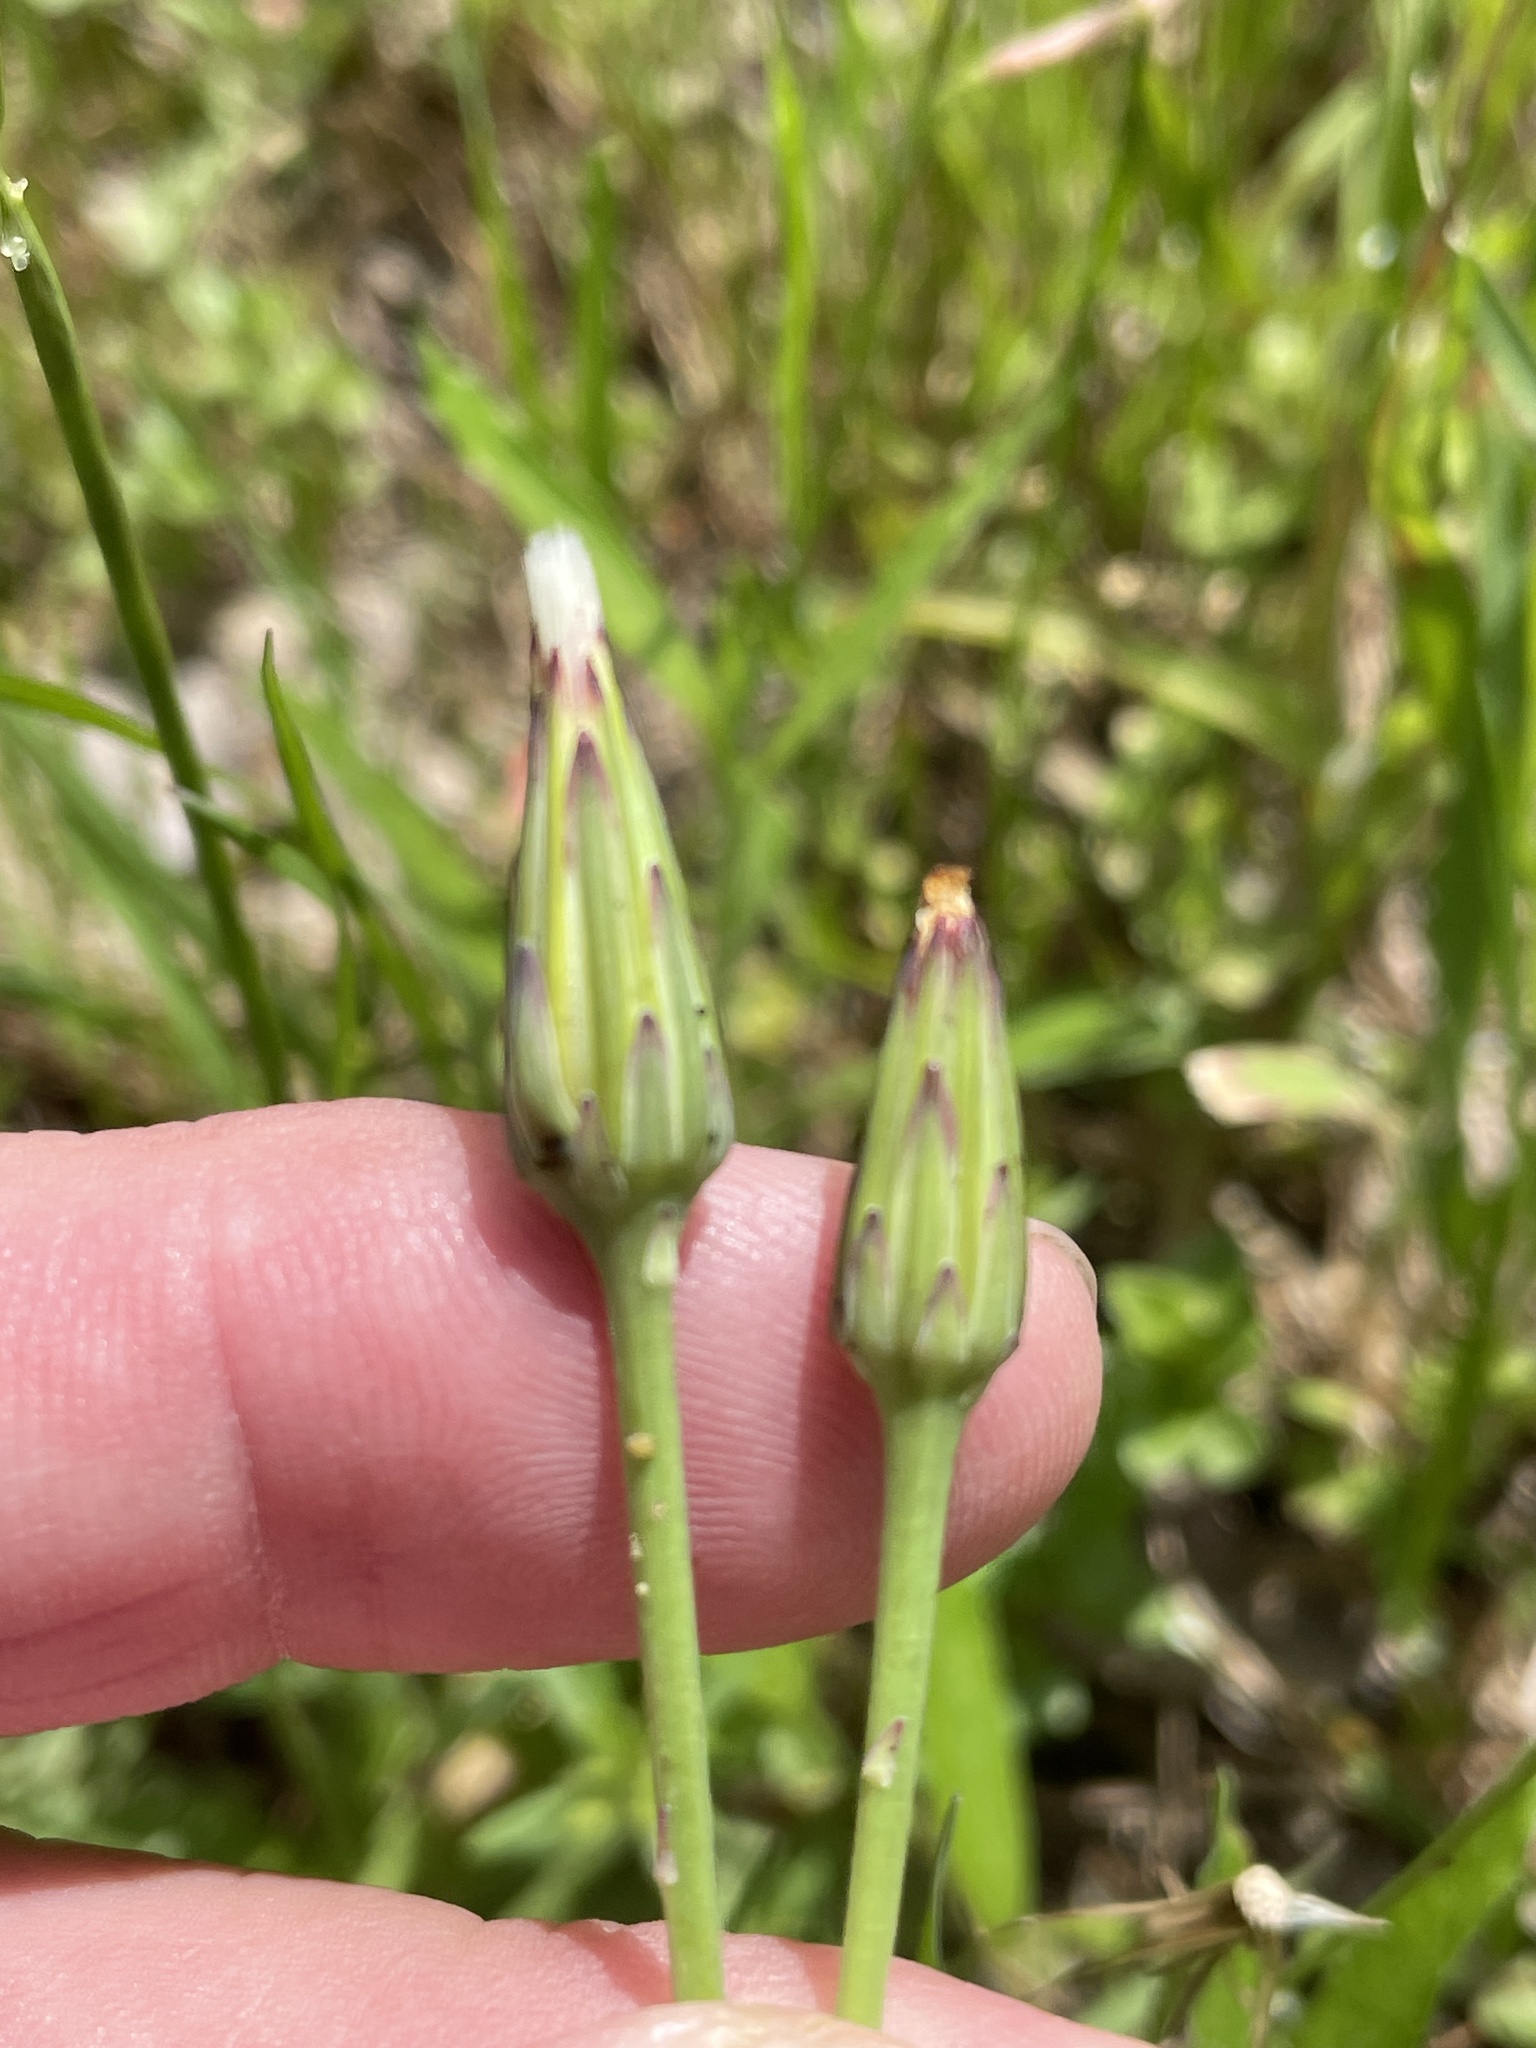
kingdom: Plantae
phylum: Tracheophyta
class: Magnoliopsida
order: Asterales
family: Asteraceae
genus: Hypochaeris
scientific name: Hypochaeris glabra
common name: Smooth catsear
